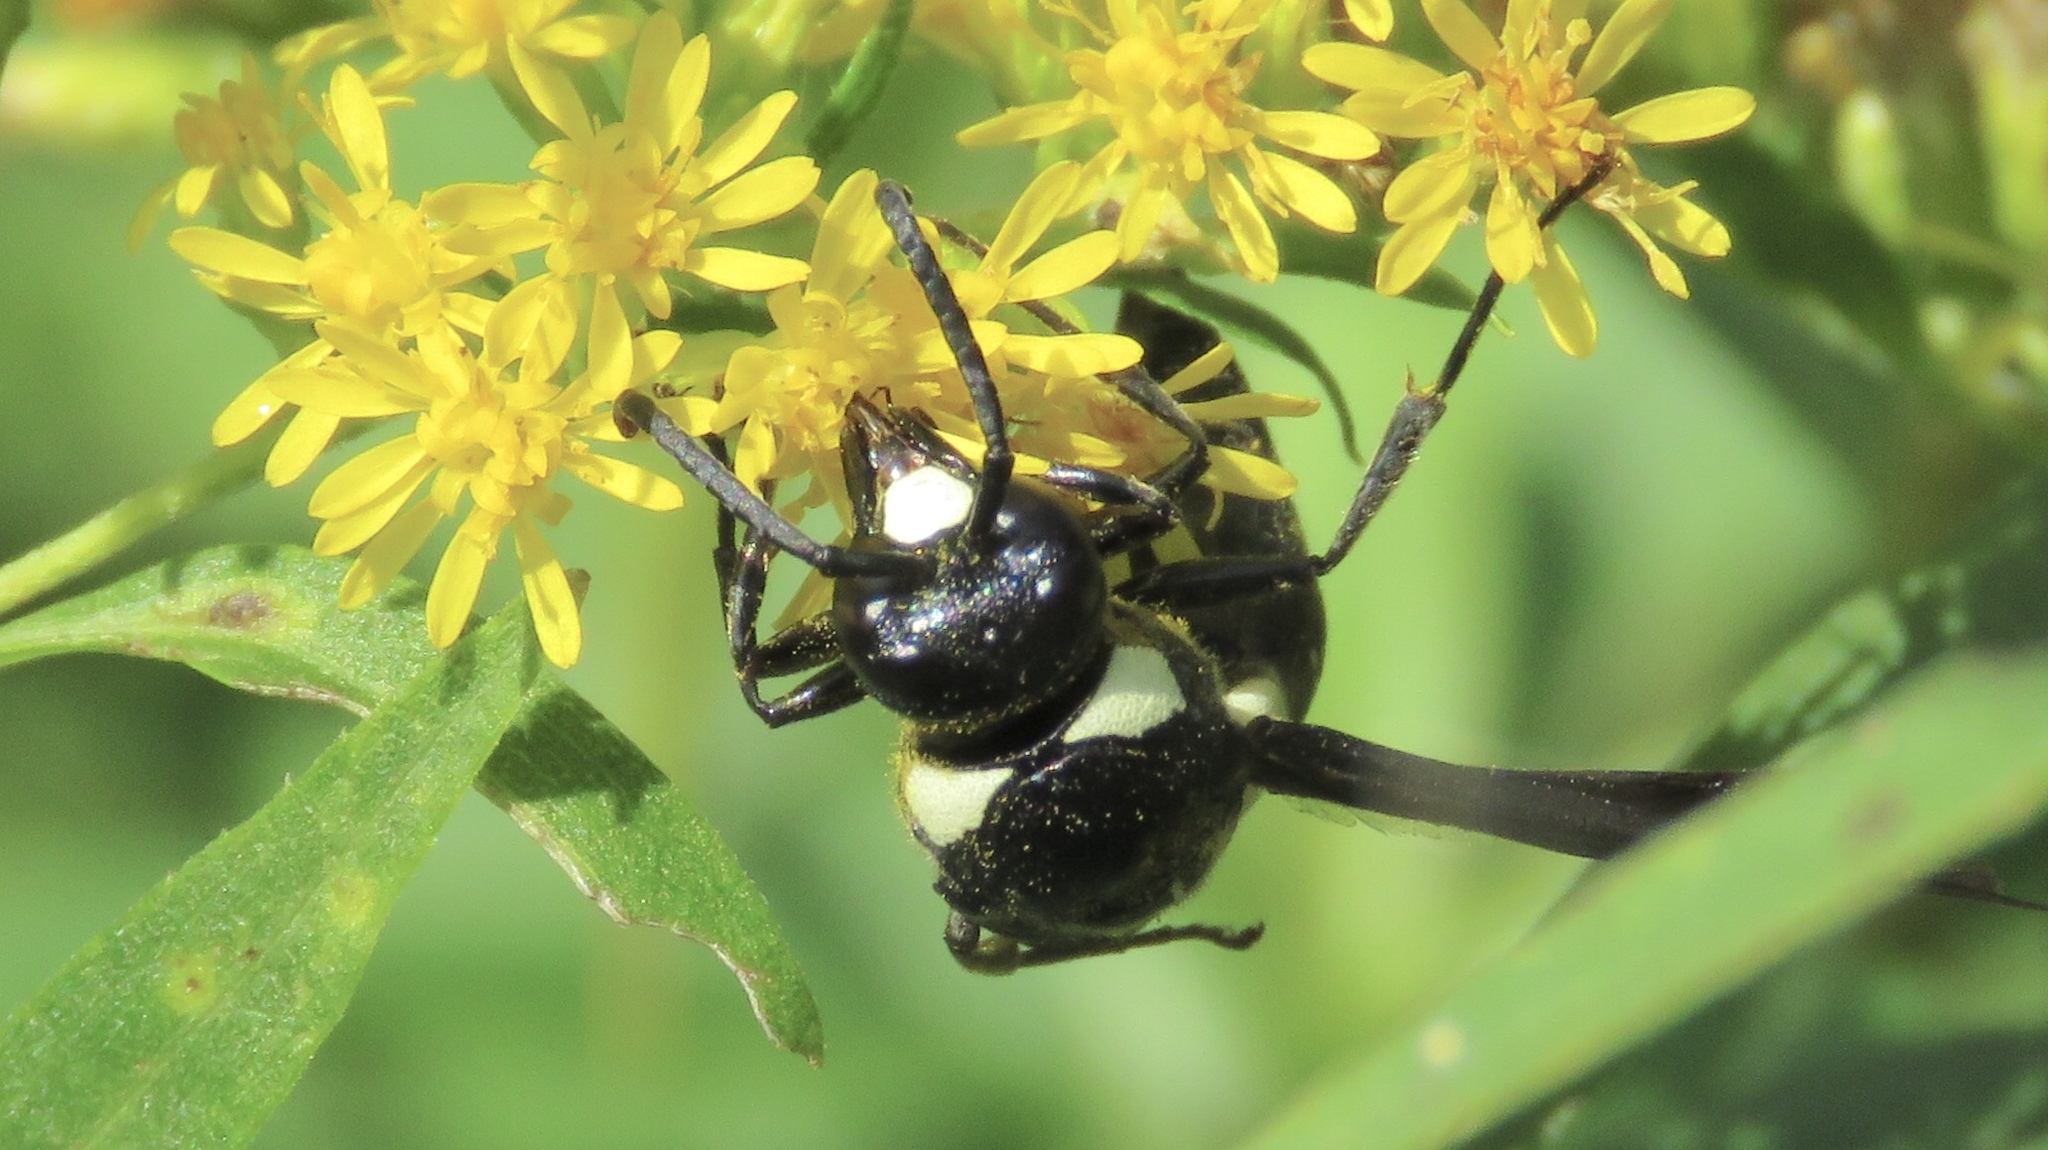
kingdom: Animalia
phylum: Arthropoda
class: Insecta
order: Hymenoptera
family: Eumenidae
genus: Monobia
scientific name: Monobia quadridens
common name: Four-toothed mason wasp
